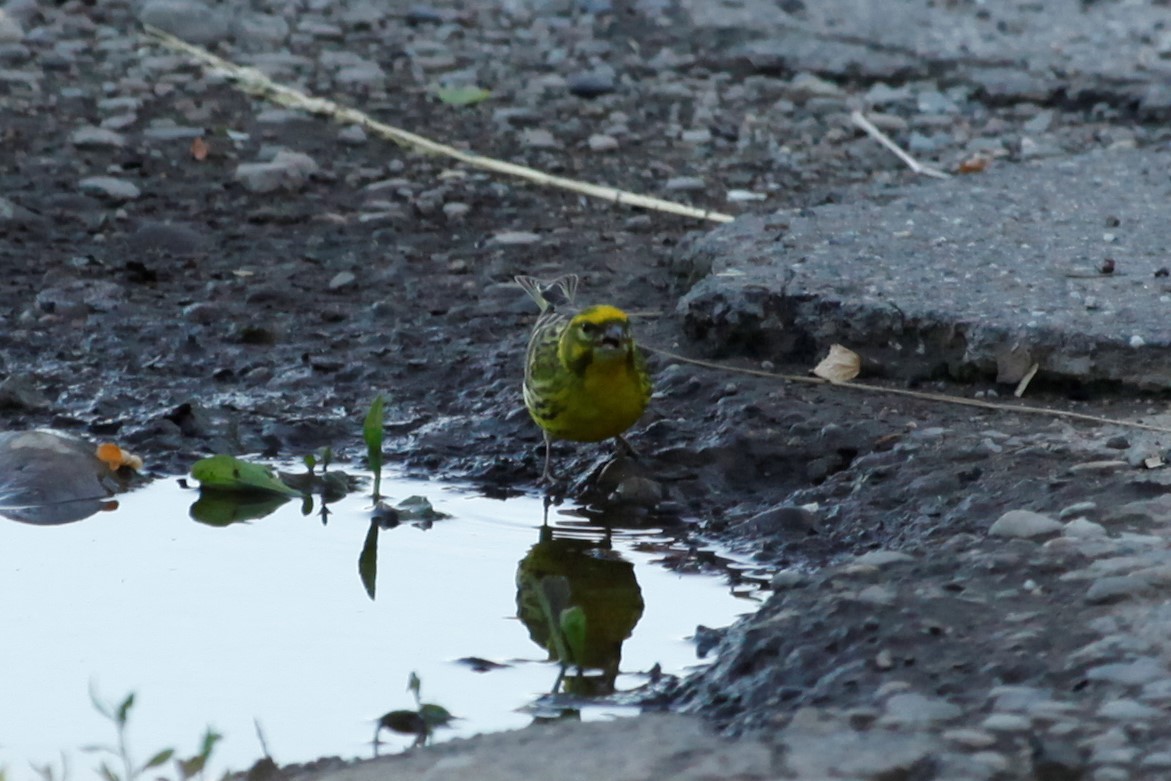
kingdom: Animalia
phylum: Chordata
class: Aves
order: Passeriformes
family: Fringillidae
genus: Serinus
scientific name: Serinus serinus
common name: European serin
